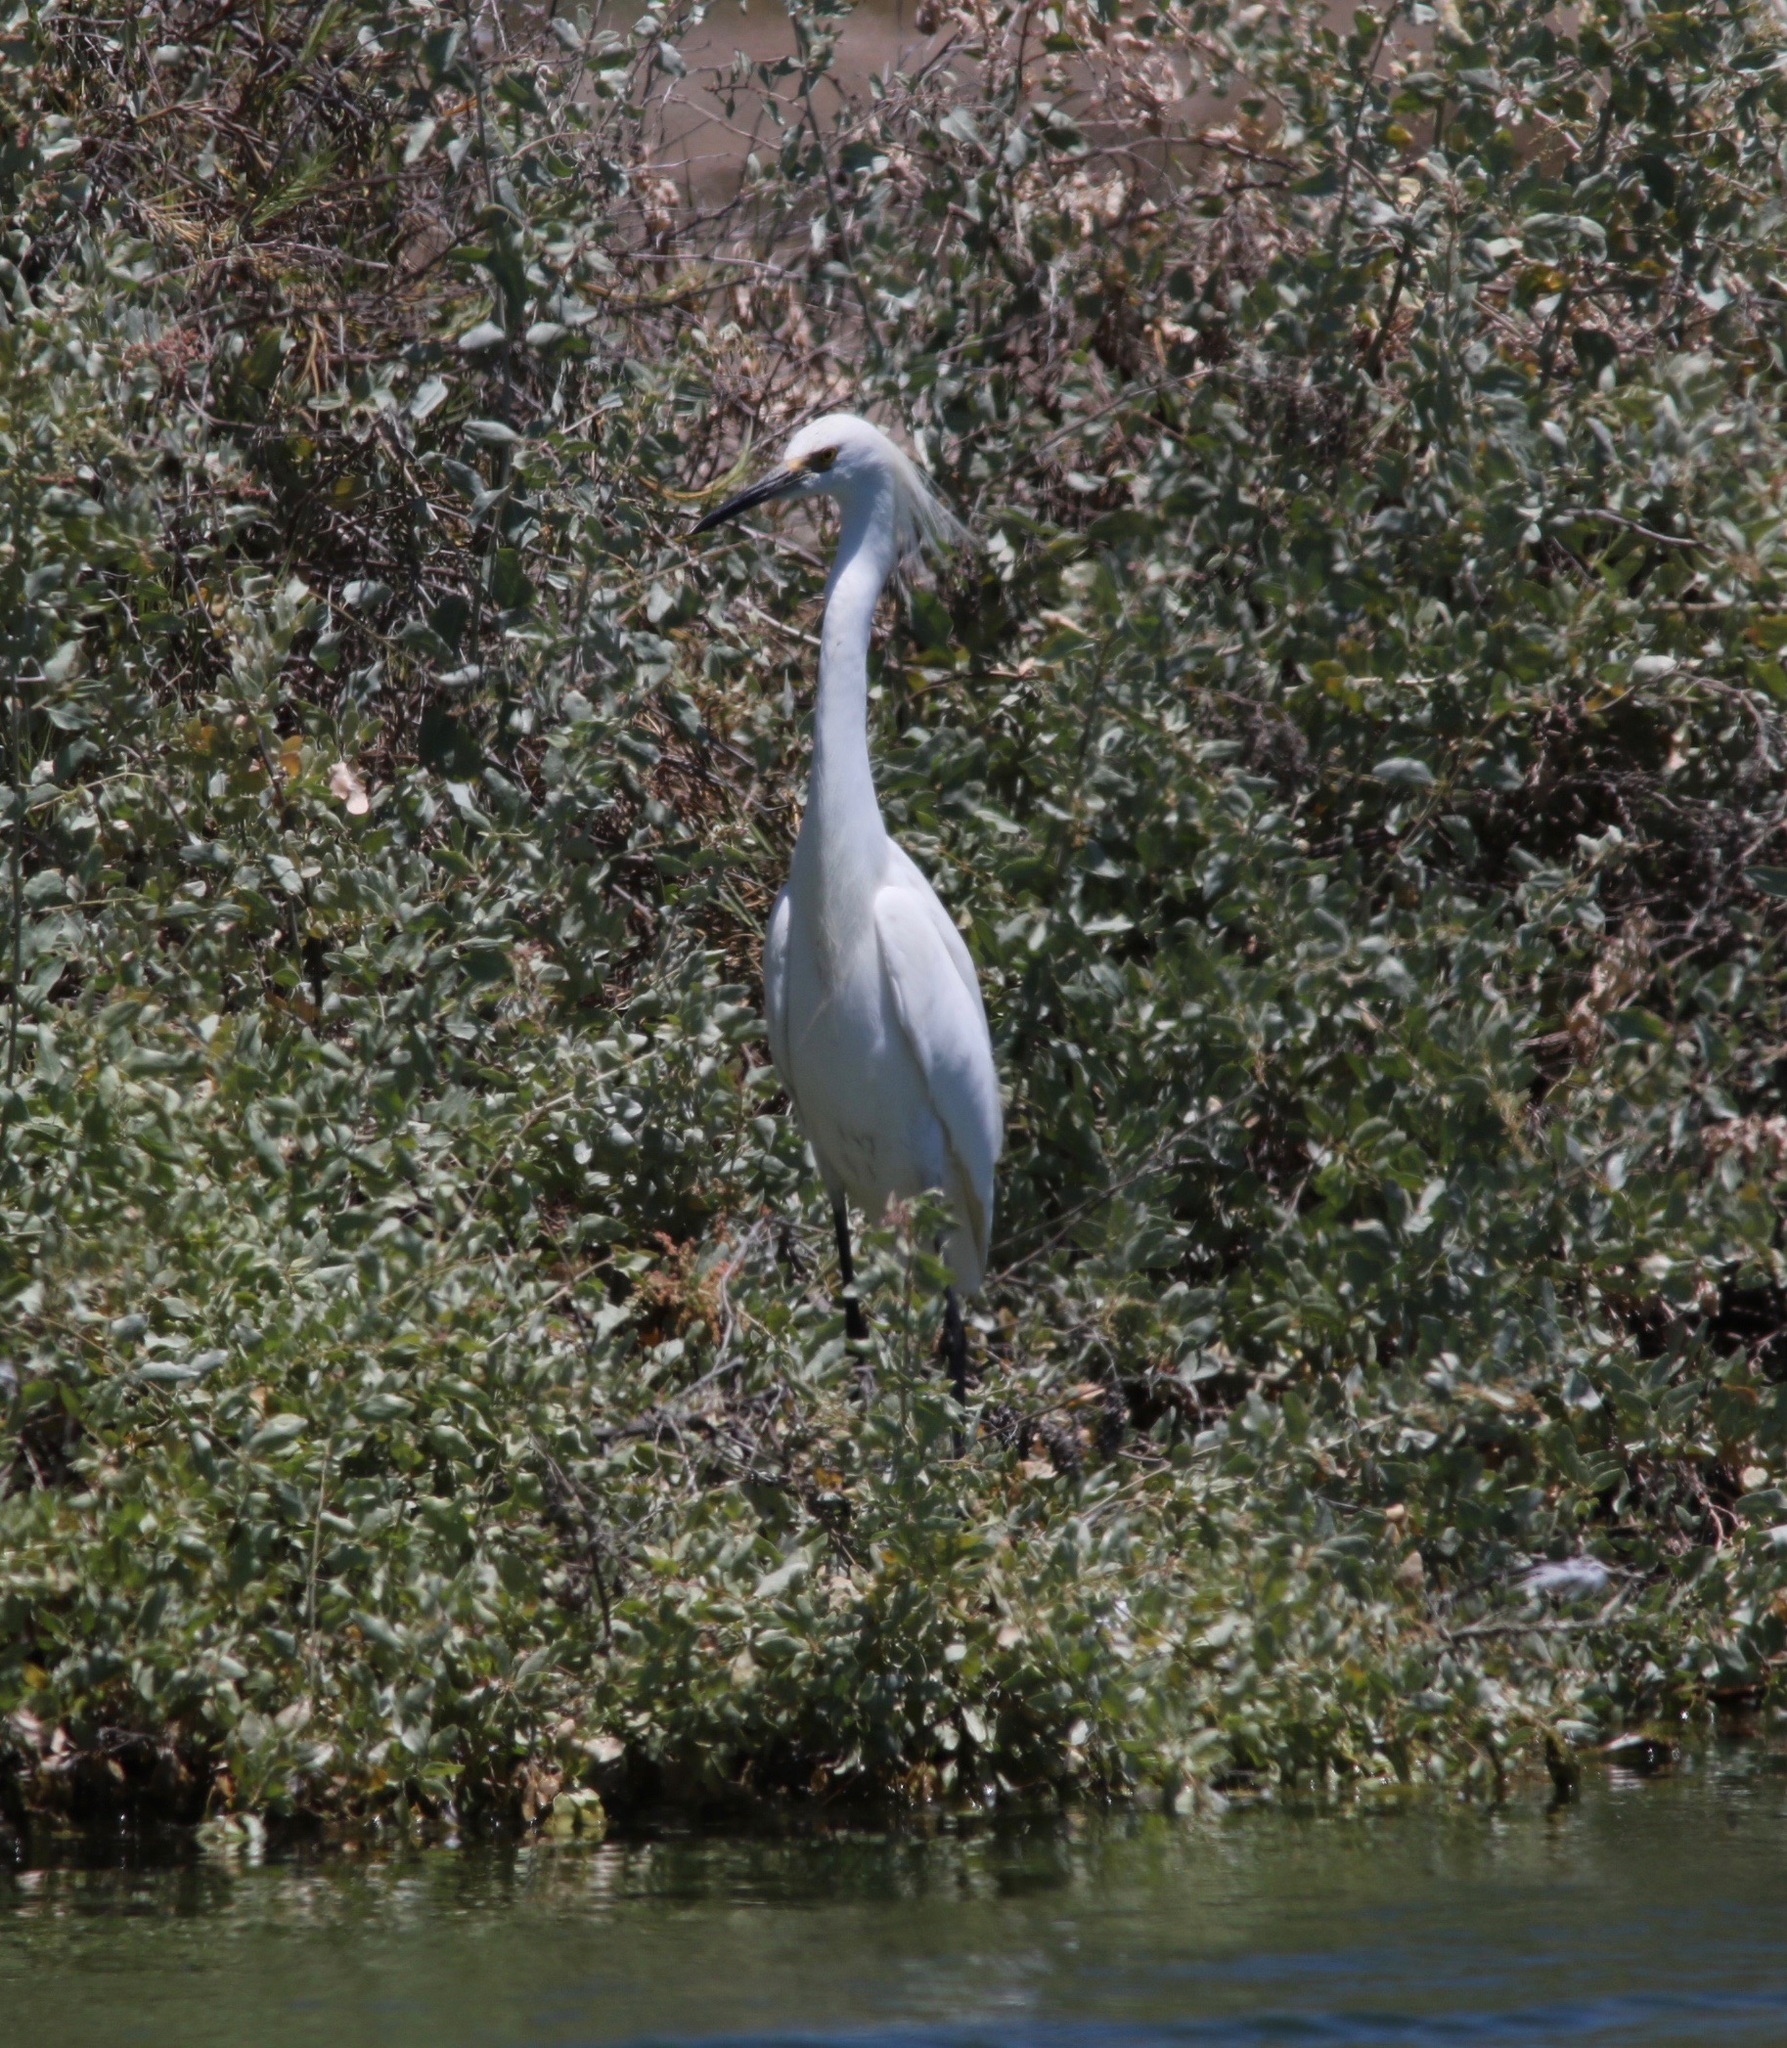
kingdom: Animalia
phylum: Chordata
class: Aves
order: Pelecaniformes
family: Ardeidae
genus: Egretta
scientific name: Egretta thula
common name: Snowy egret
